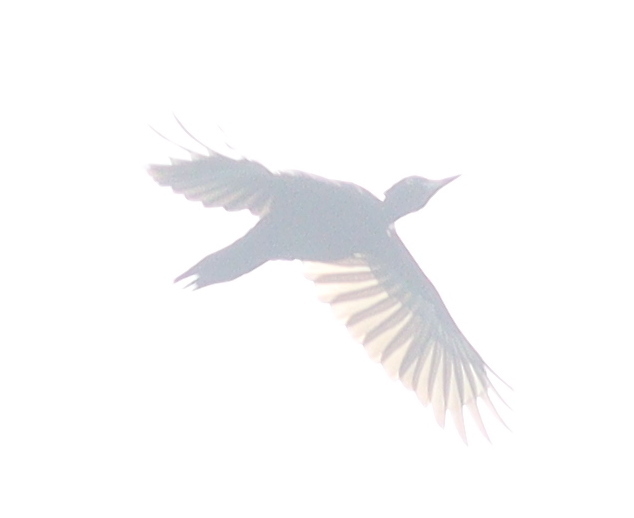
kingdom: Animalia
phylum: Chordata
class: Aves
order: Piciformes
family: Picidae
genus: Dryocopus
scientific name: Dryocopus martius
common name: Black woodpecker
